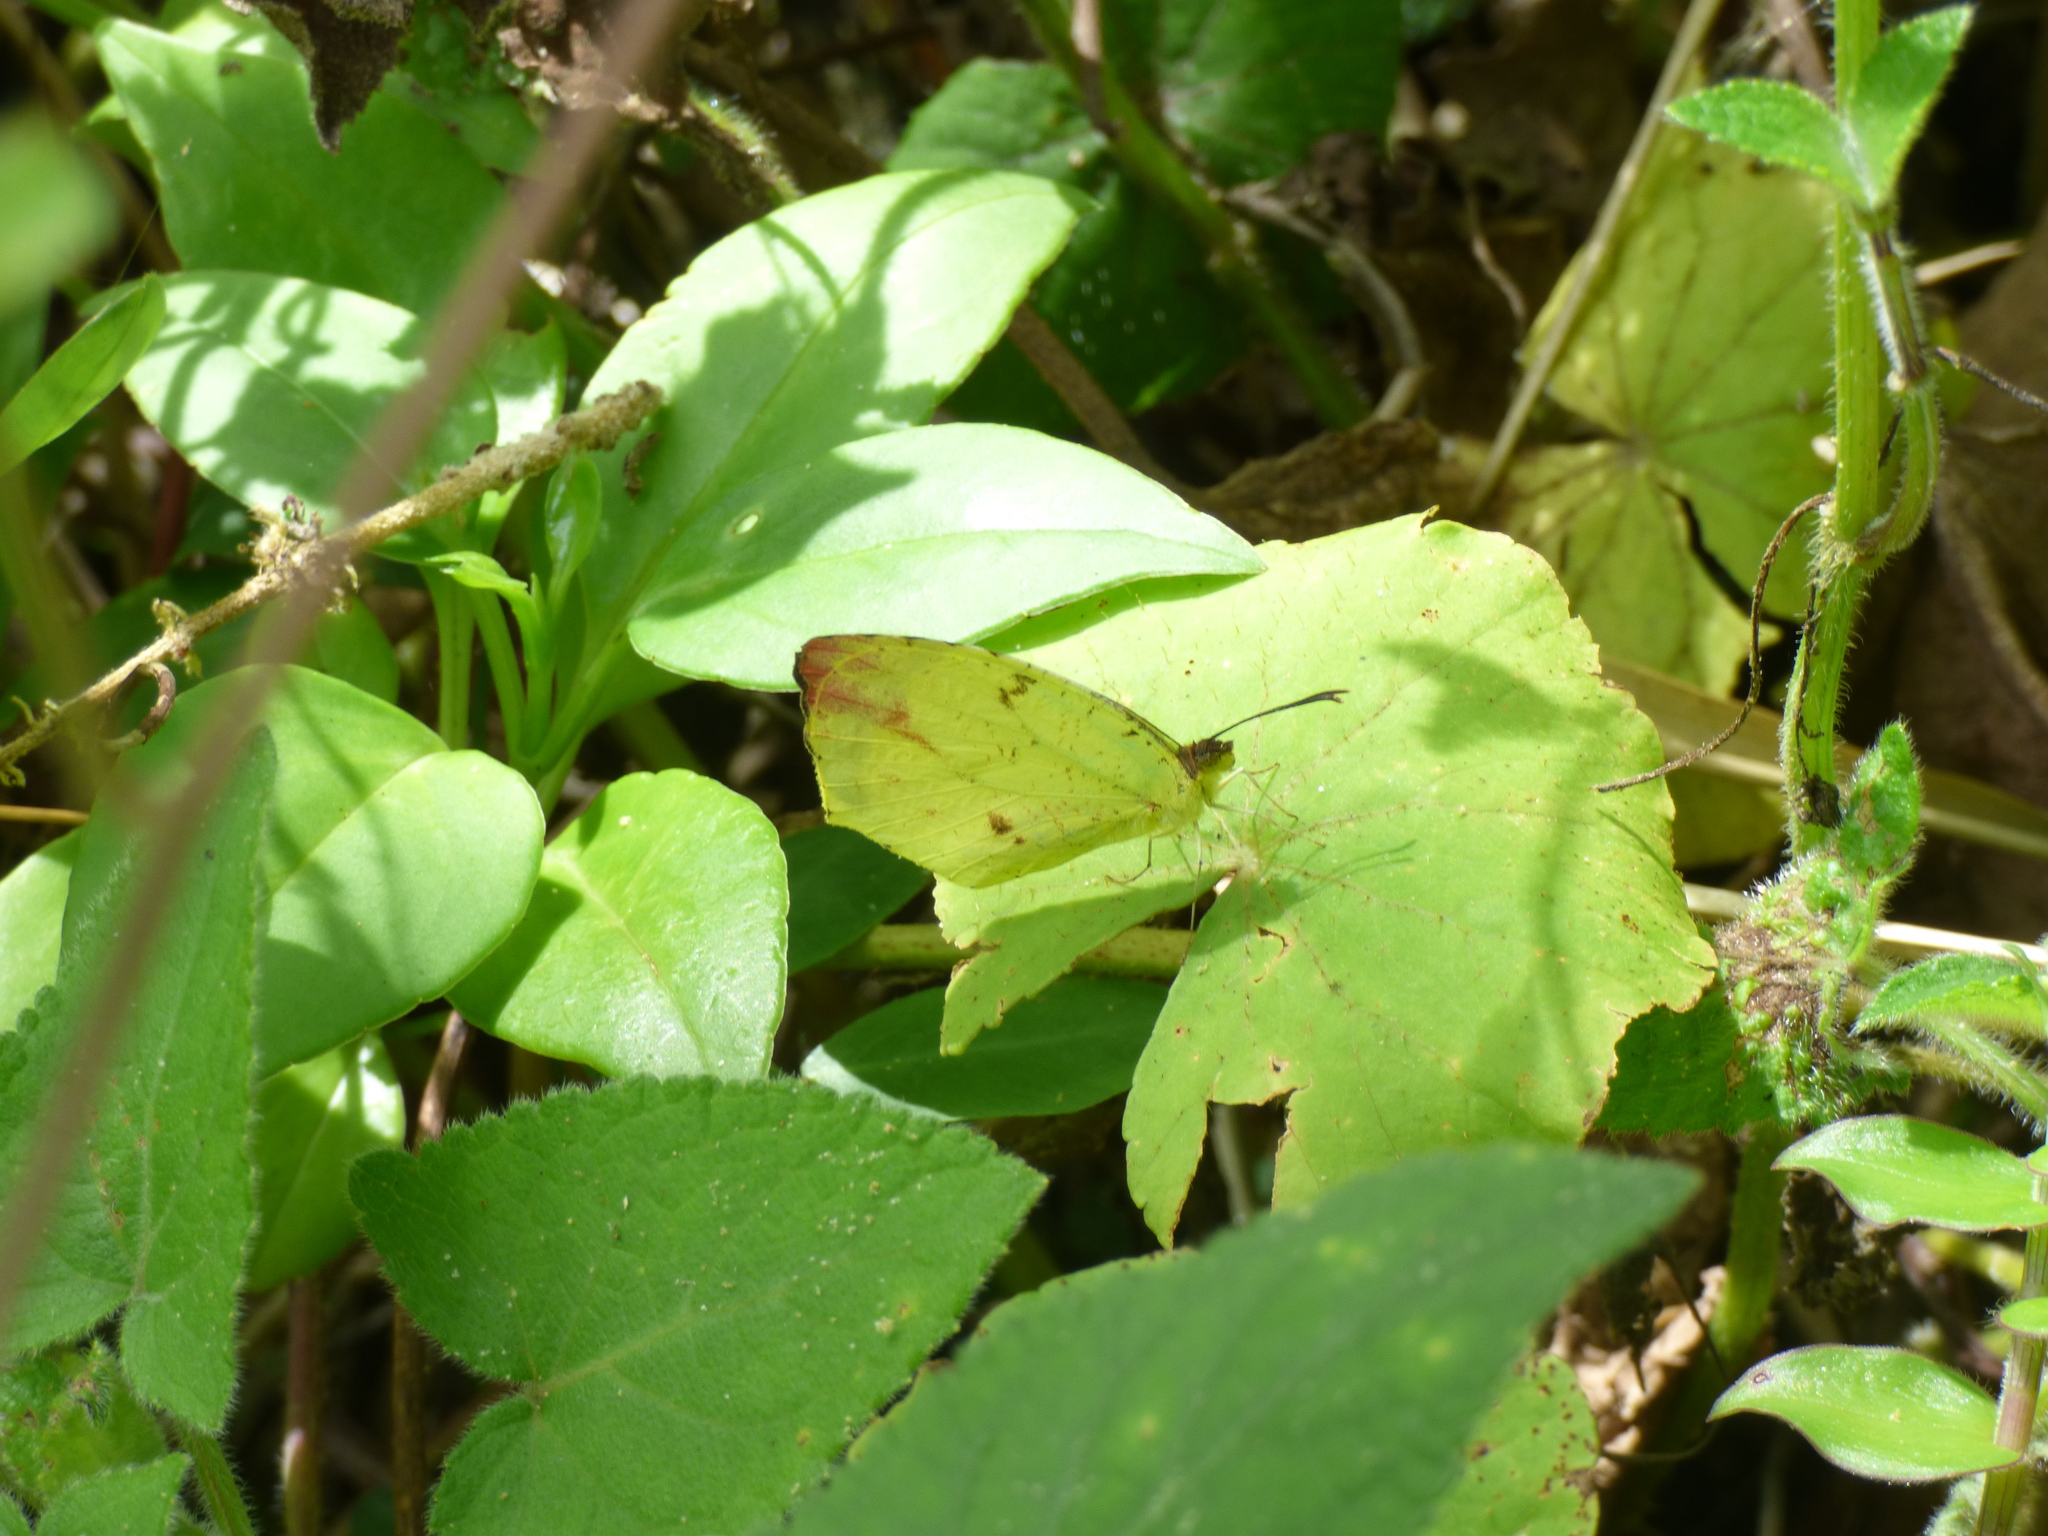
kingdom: Animalia
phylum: Arthropoda
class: Insecta
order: Lepidoptera
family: Pieridae
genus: Abaeis
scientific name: Abaeis
